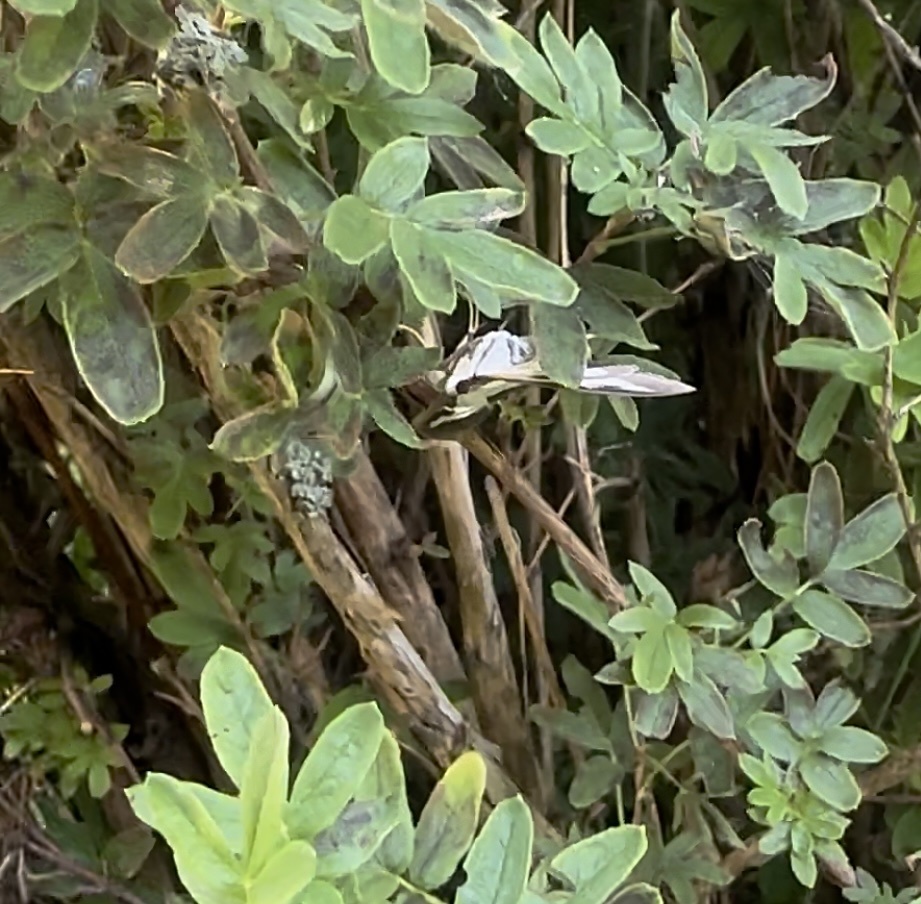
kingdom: Animalia
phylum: Arthropoda
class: Insecta
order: Lepidoptera
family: Crambidae
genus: Cydalima
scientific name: Cydalima perspectalis
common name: Box tree moth
